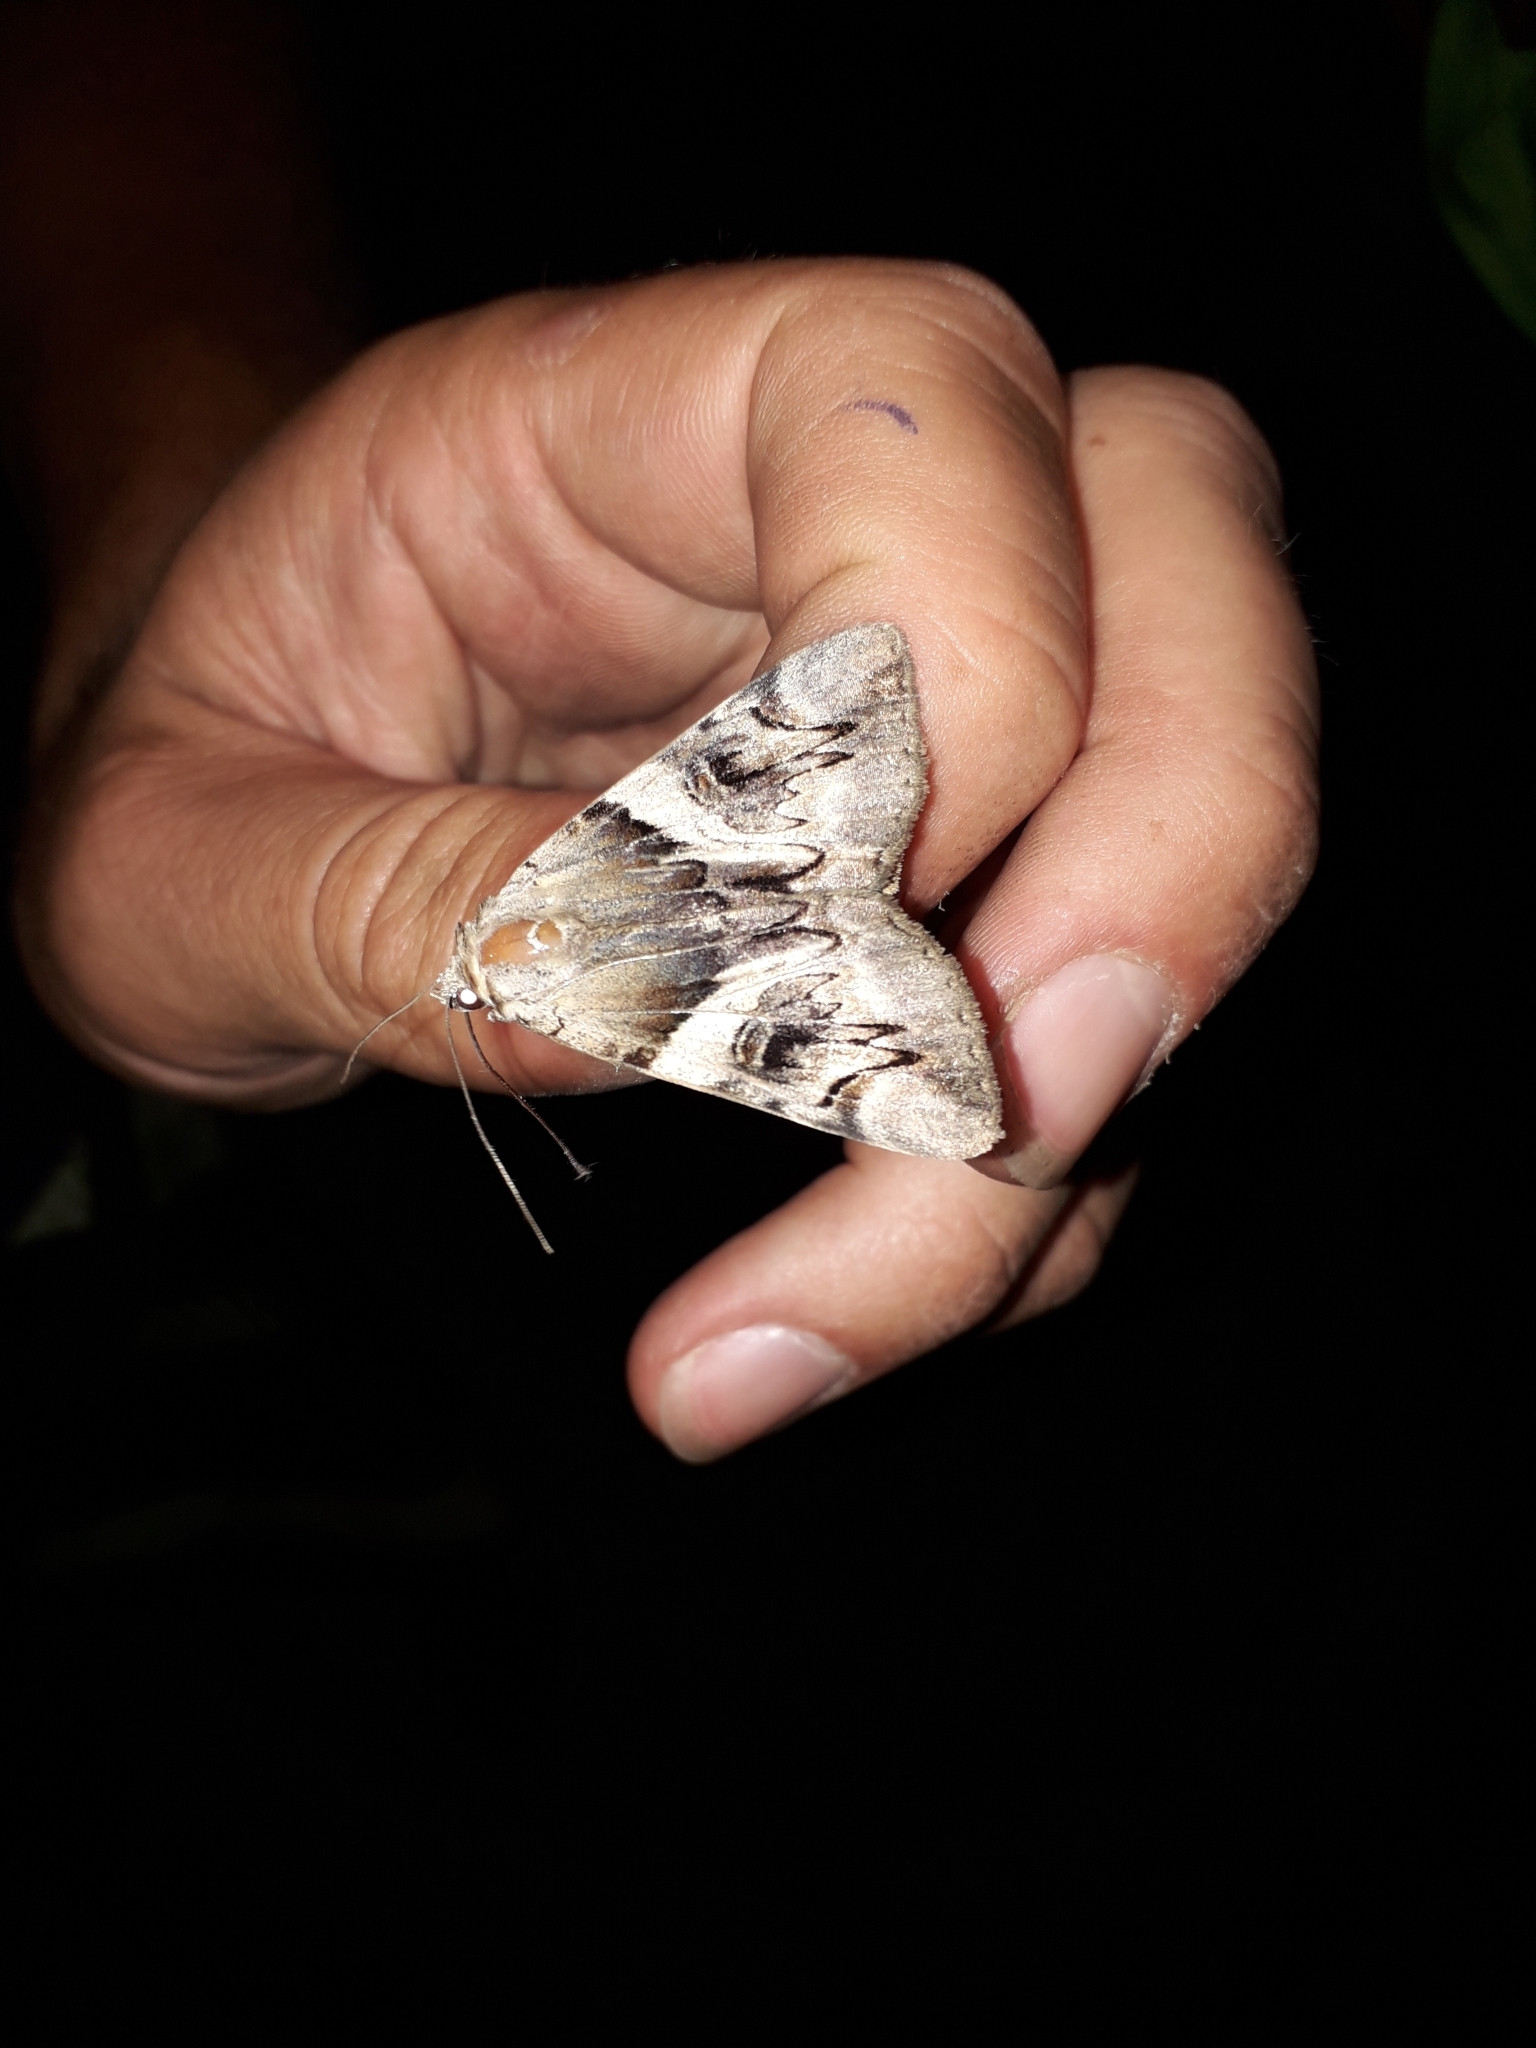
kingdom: Animalia
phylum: Arthropoda
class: Insecta
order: Lepidoptera
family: Erebidae
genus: Catocala
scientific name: Catocala fulminea
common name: Yellow bands underwing
